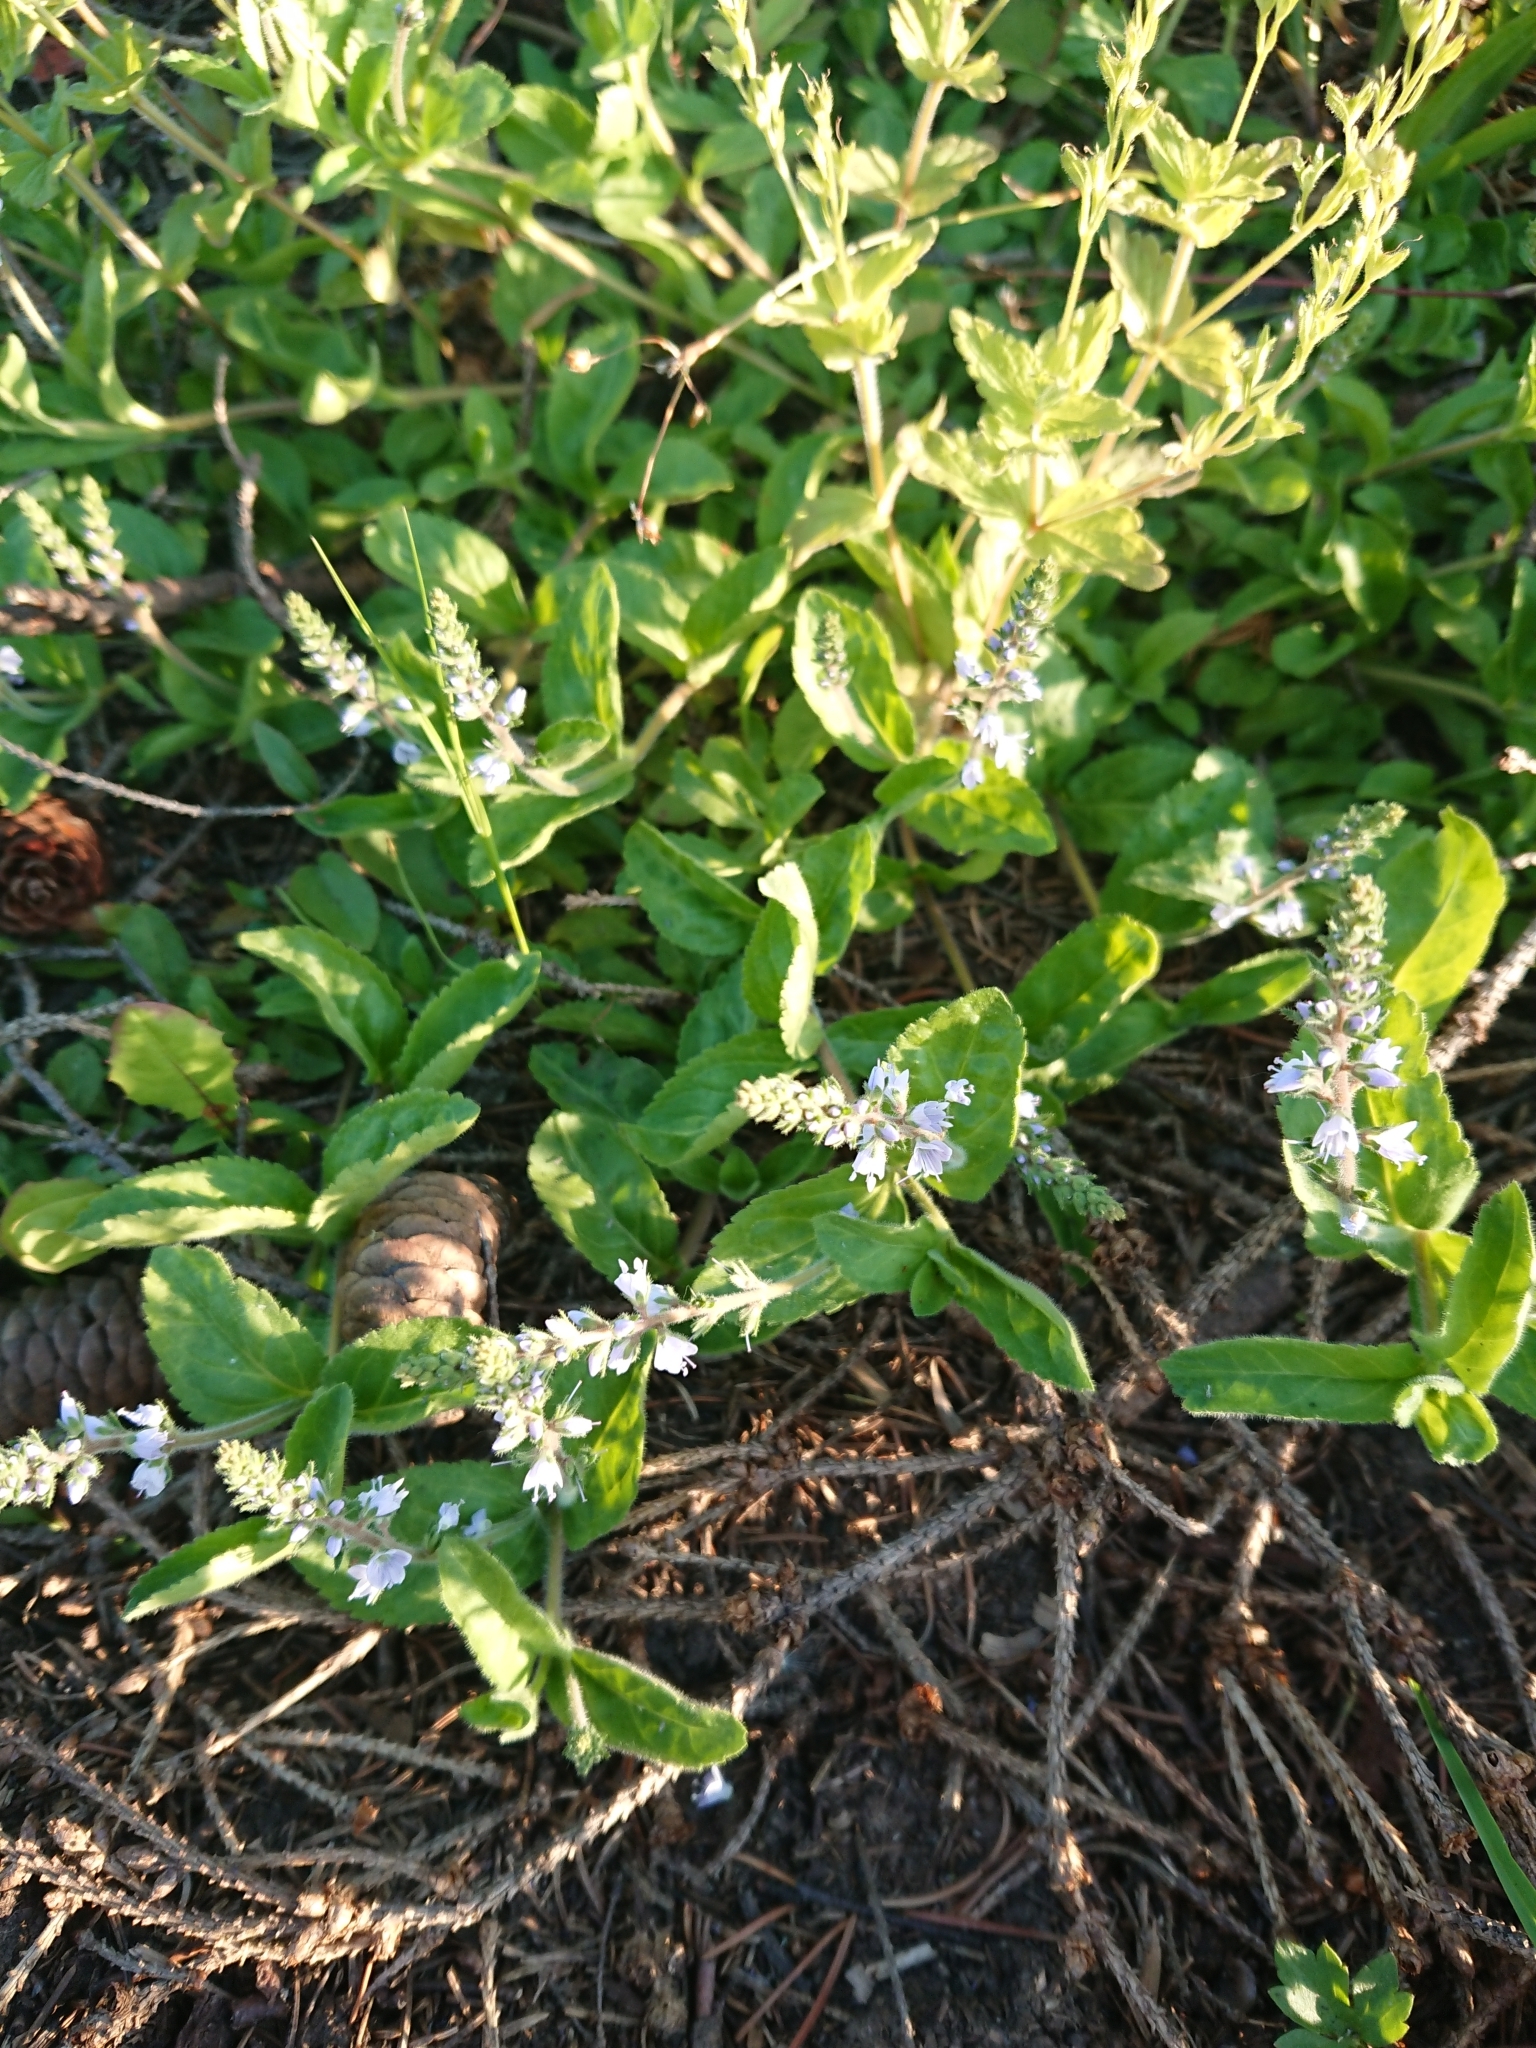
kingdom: Plantae
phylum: Tracheophyta
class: Magnoliopsida
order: Lamiales
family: Plantaginaceae
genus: Veronica
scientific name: Veronica officinalis
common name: Common speedwell
